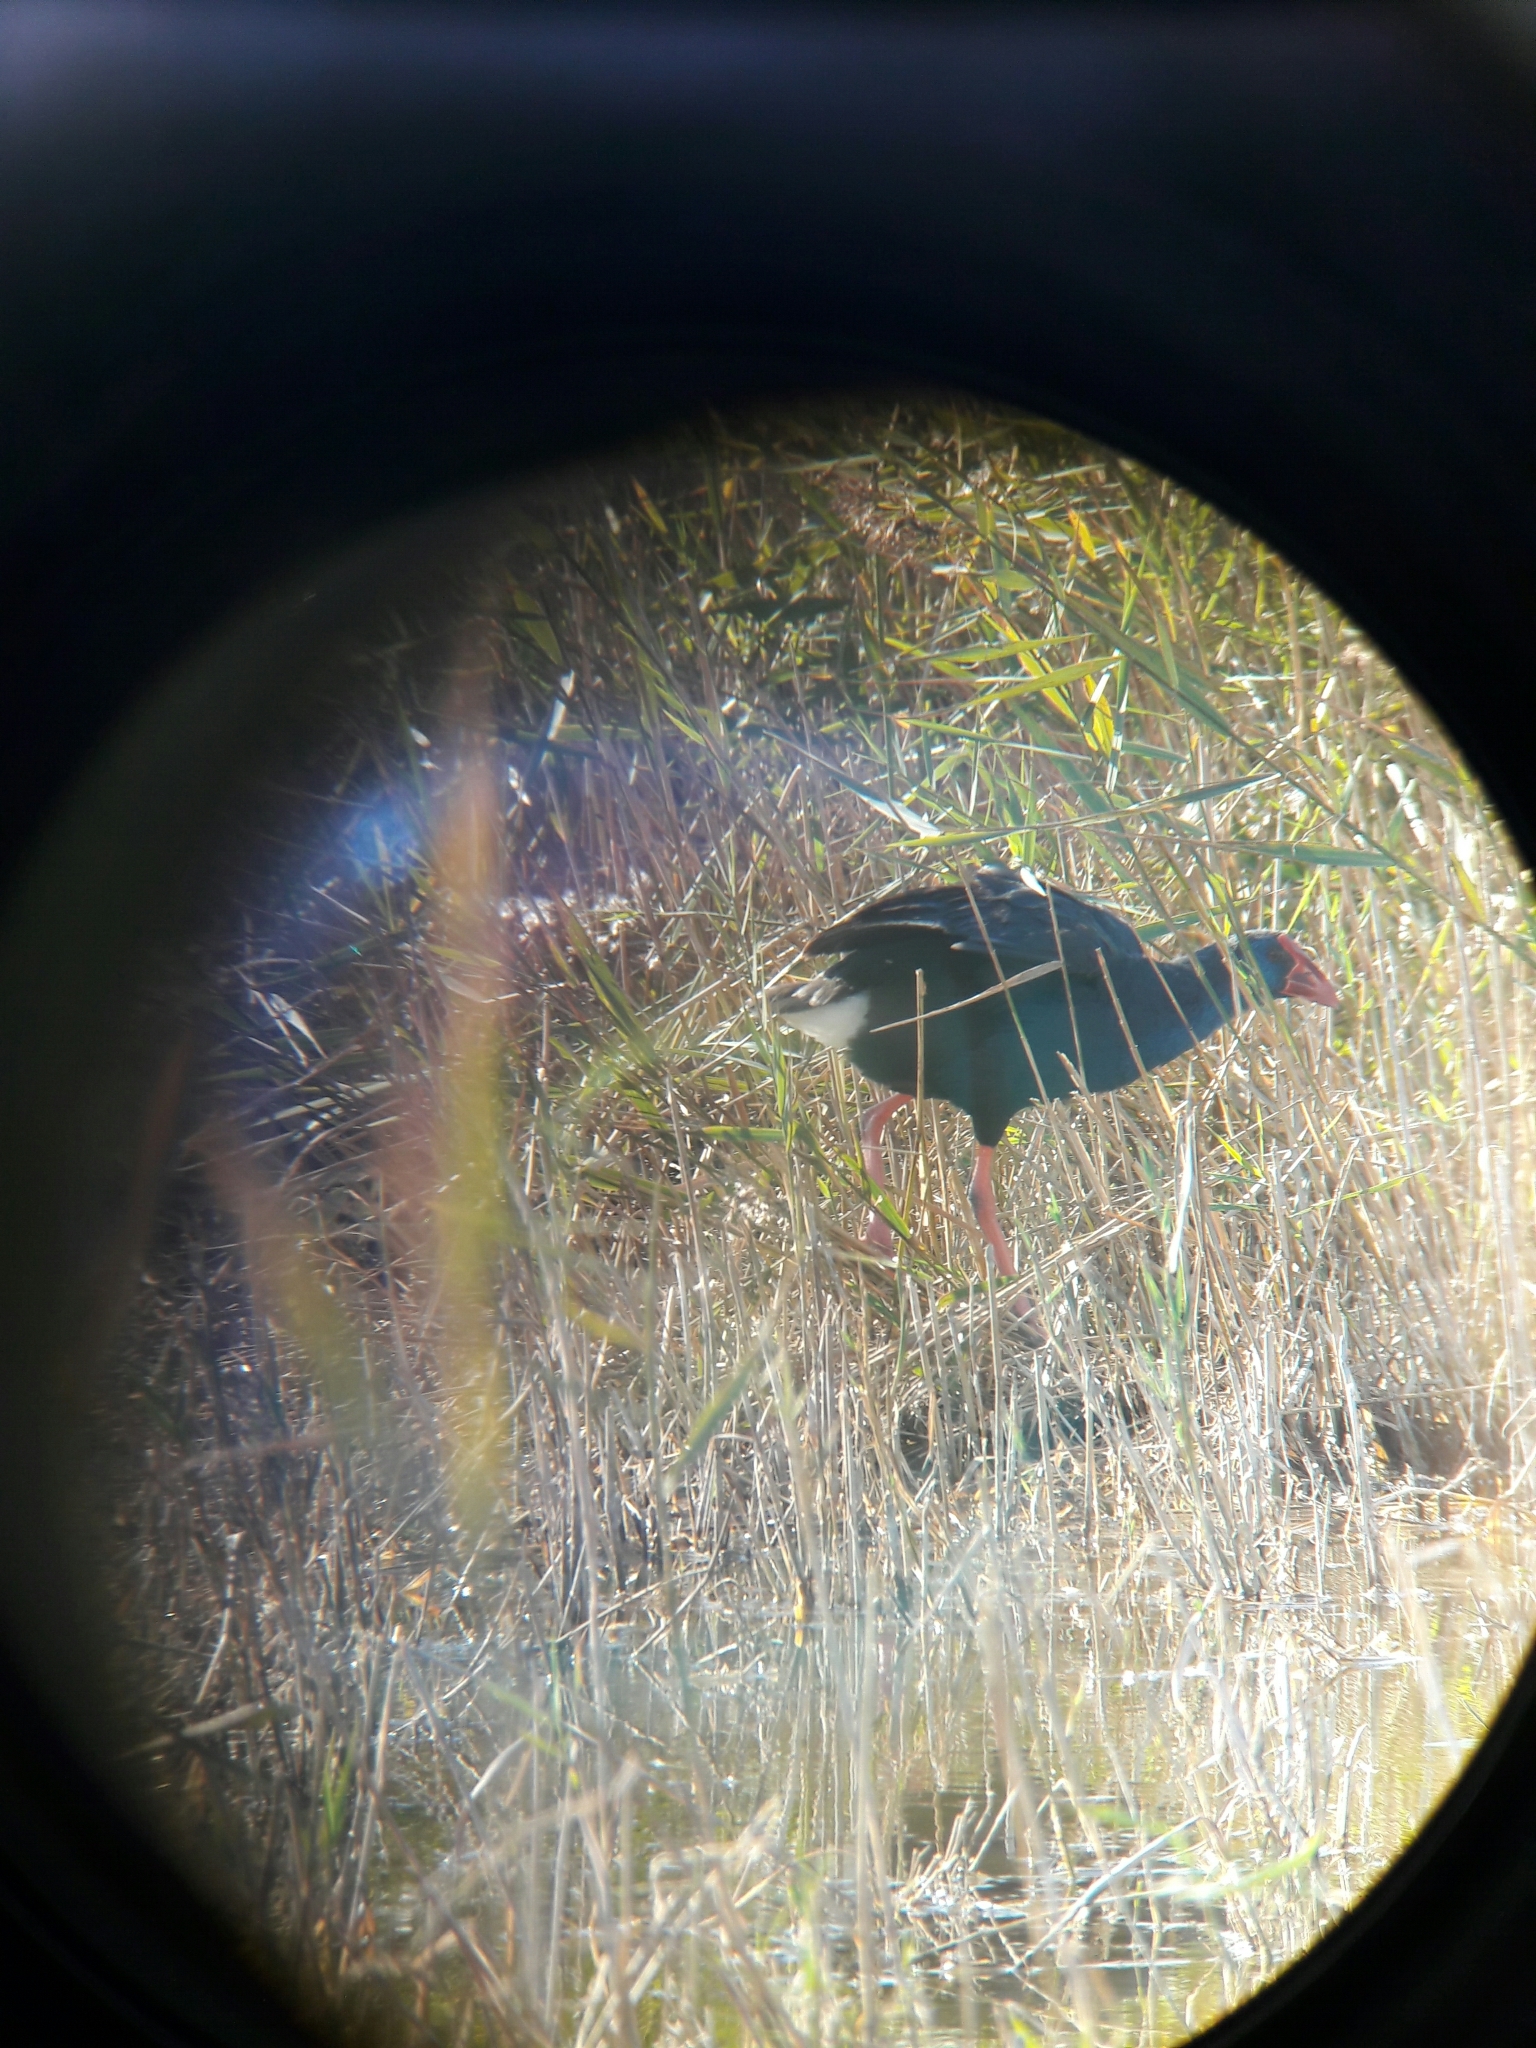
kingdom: Animalia
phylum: Chordata
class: Aves
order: Gruiformes
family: Rallidae
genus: Porphyrio
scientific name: Porphyrio porphyrio
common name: Purple swamphen
